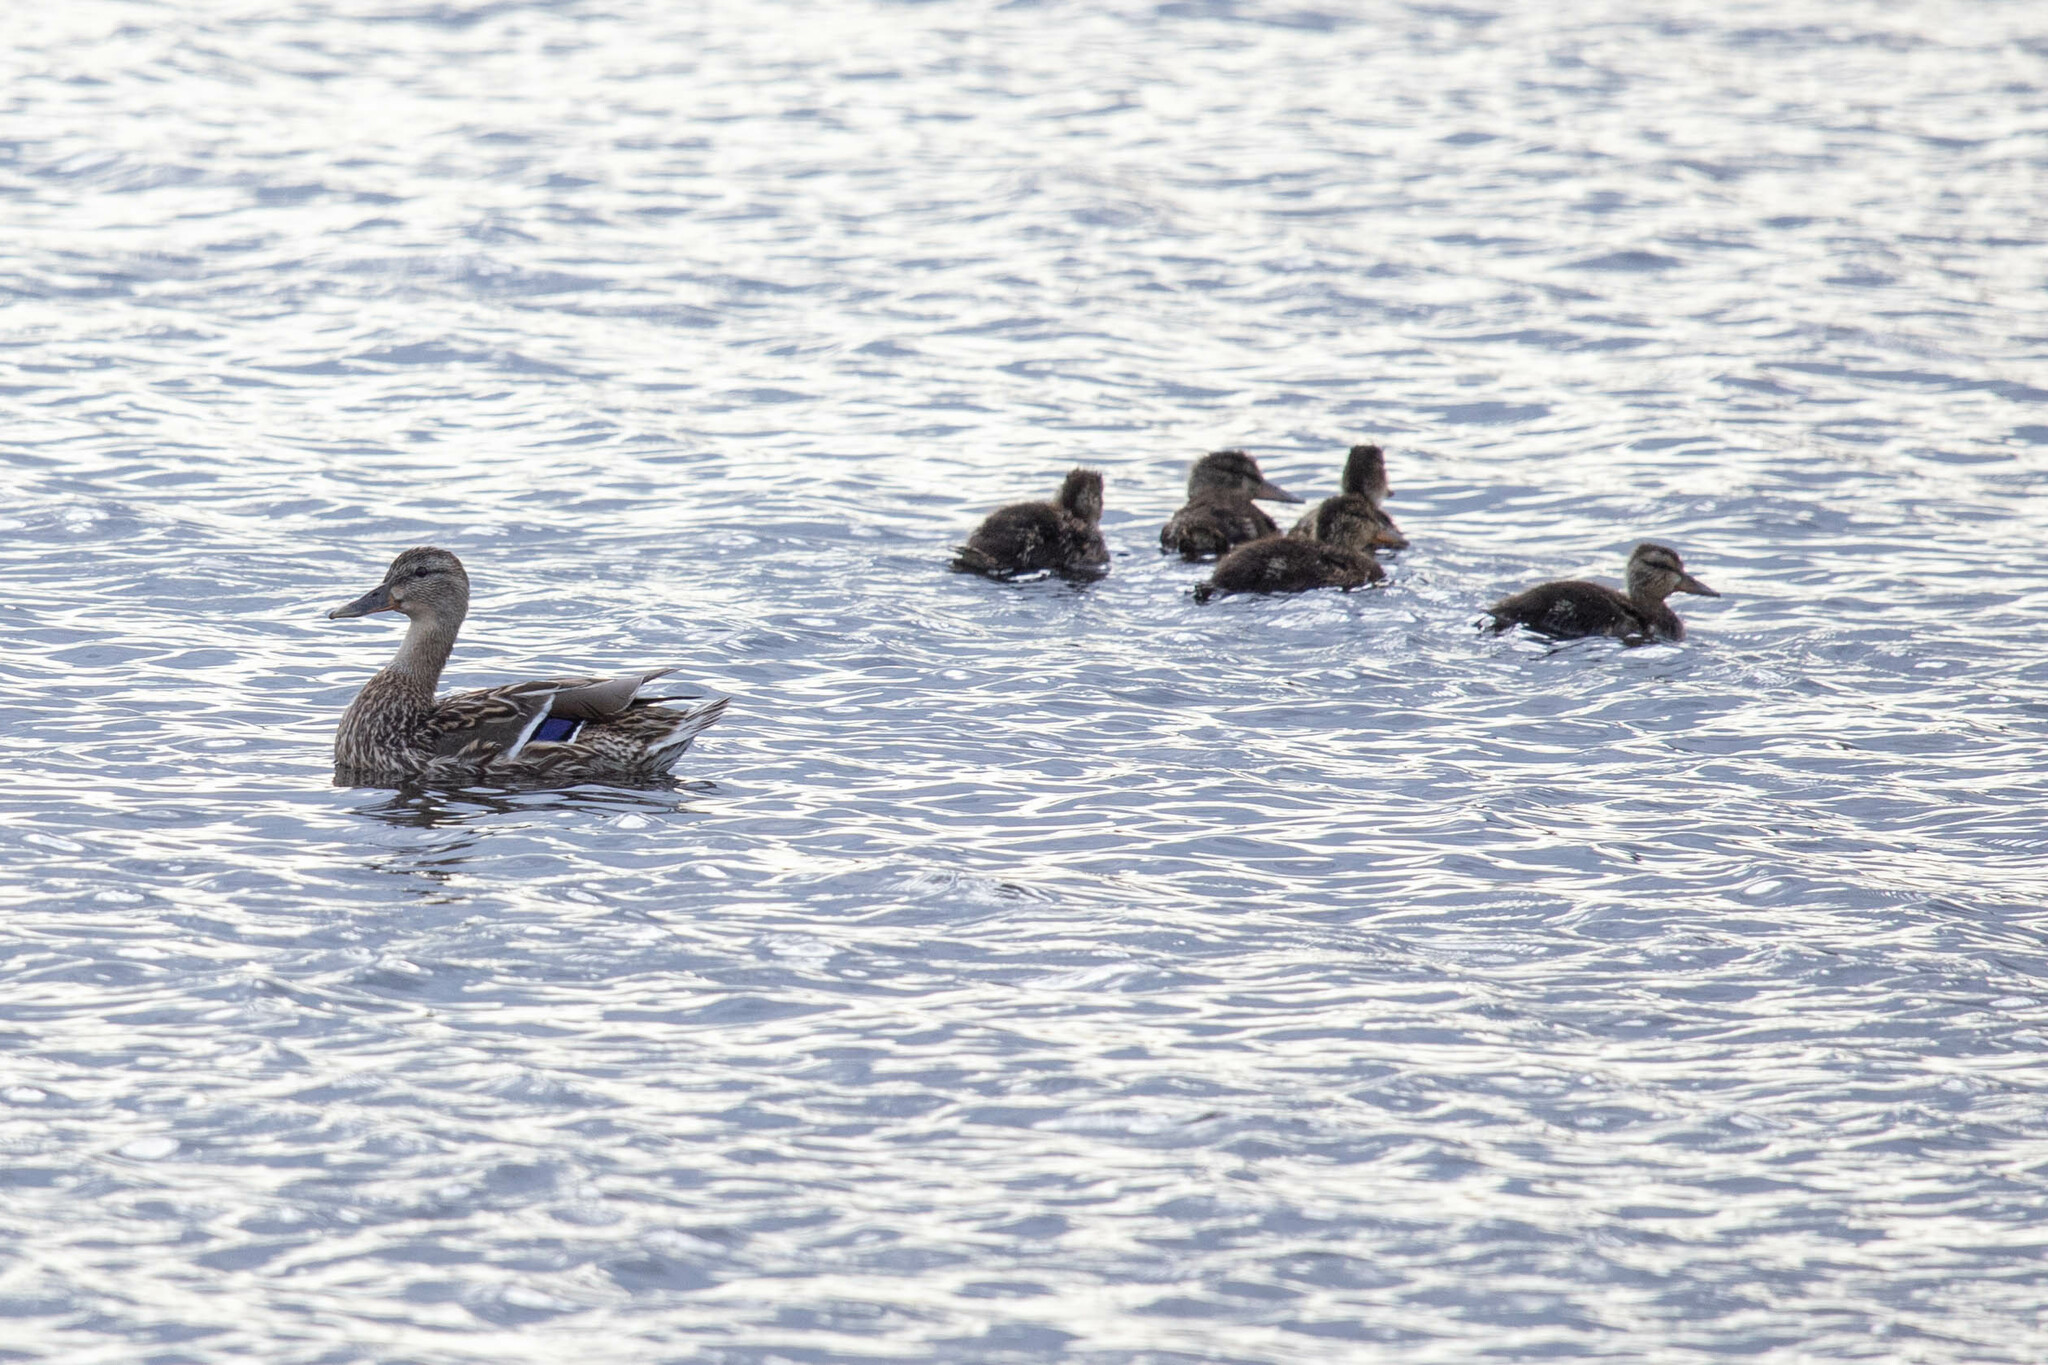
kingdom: Animalia
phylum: Chordata
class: Aves
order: Anseriformes
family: Anatidae
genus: Anas
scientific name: Anas platyrhynchos
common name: Mallard
